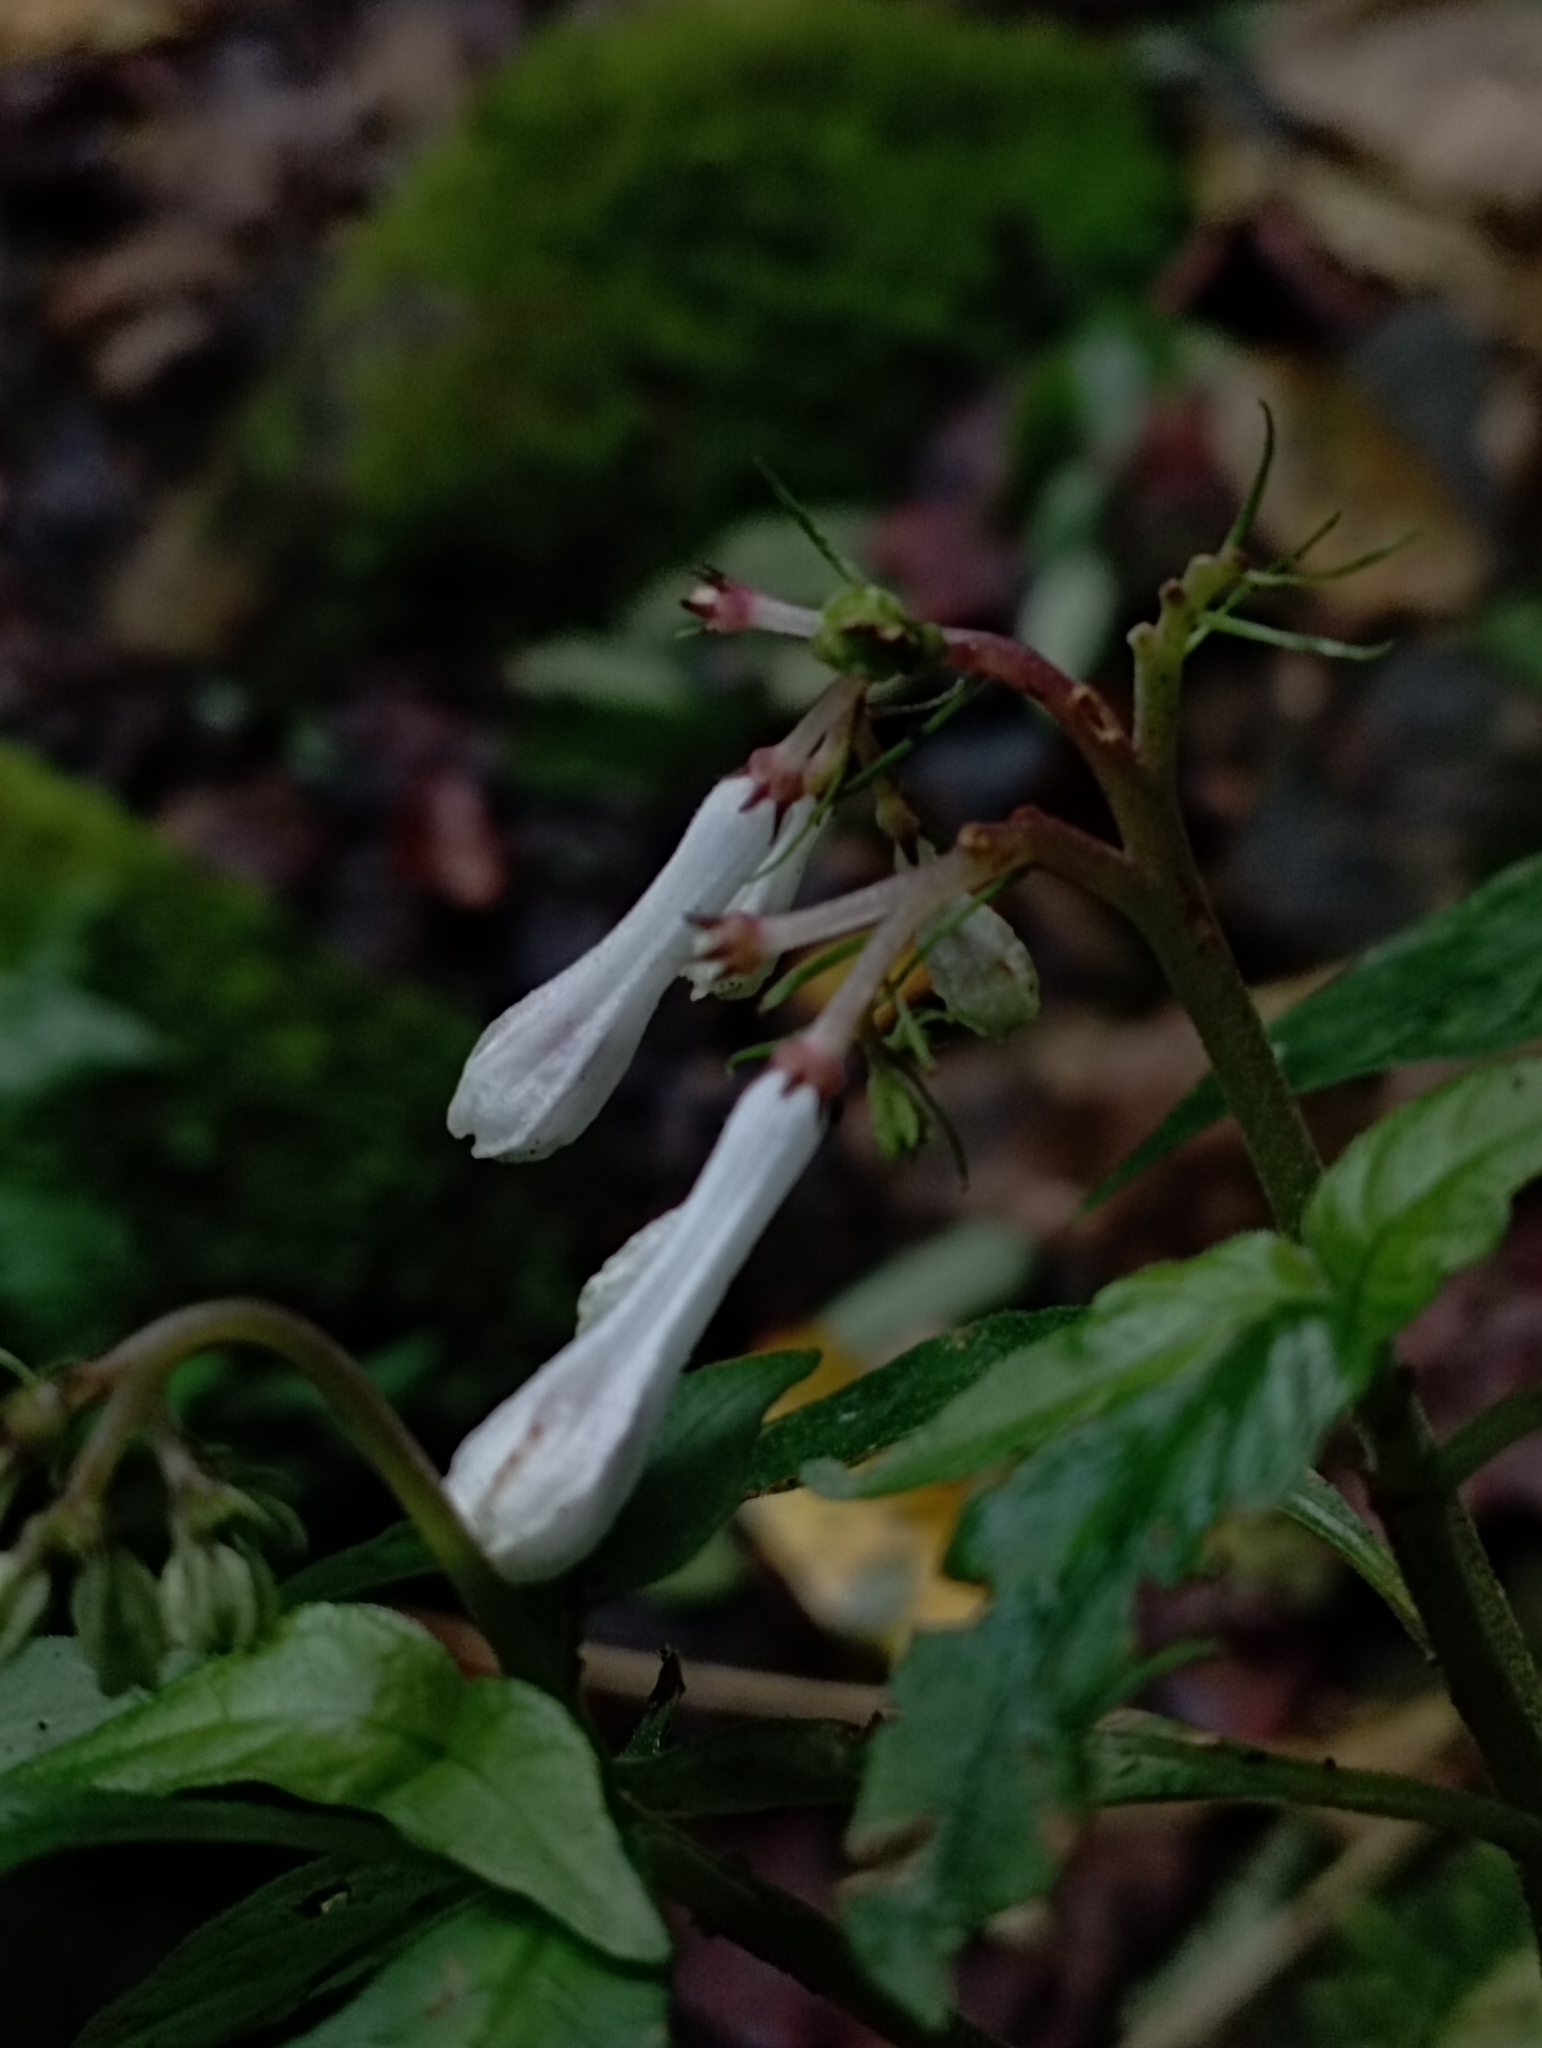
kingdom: Plantae
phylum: Tracheophyta
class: Magnoliopsida
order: Gentianales
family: Rubiaceae
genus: Ophiorrhiza
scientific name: Ophiorrhiza japonica
